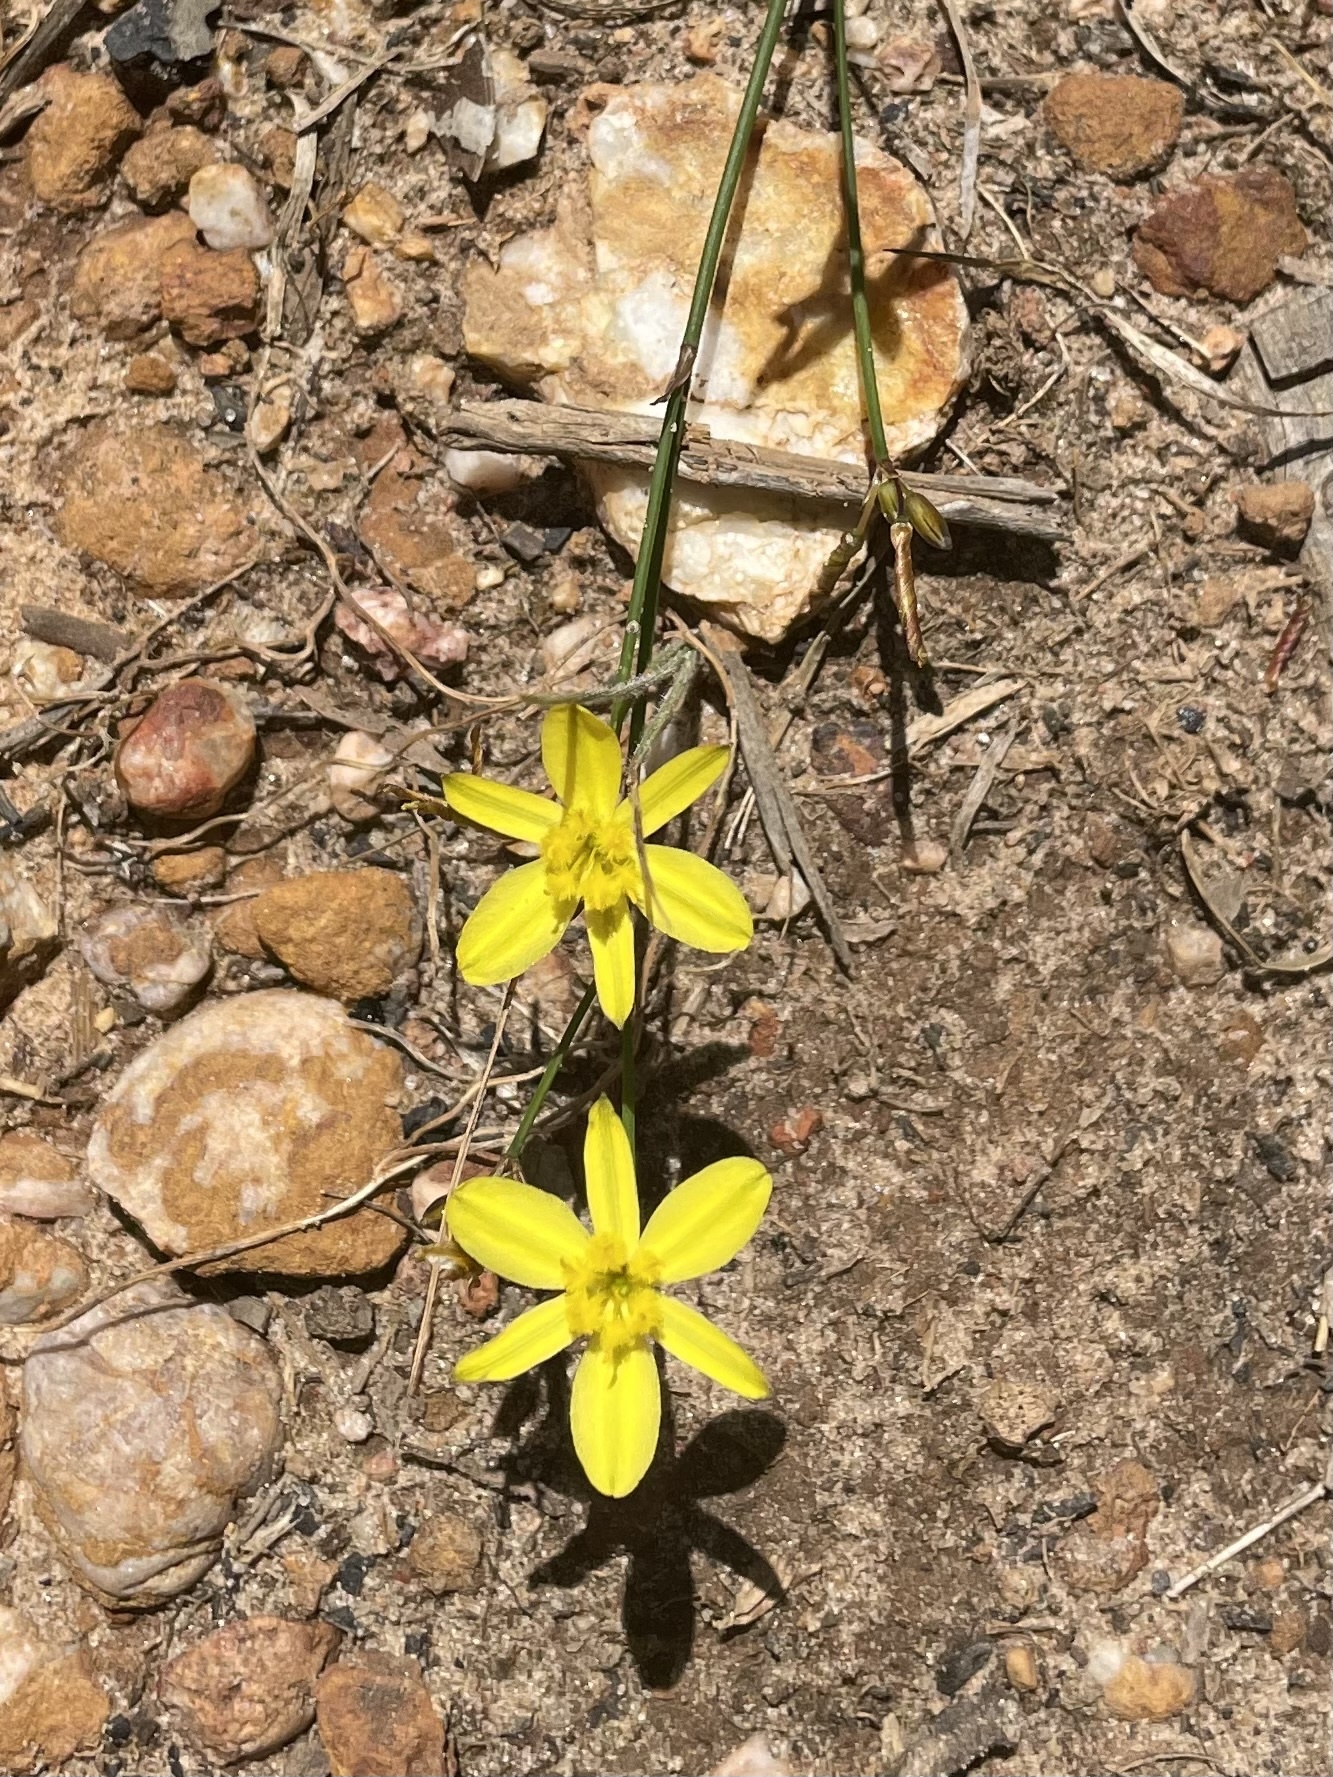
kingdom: Plantae
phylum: Tracheophyta
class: Liliopsida
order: Asparagales
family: Asphodelaceae
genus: Tricoryne
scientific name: Tricoryne elatior
